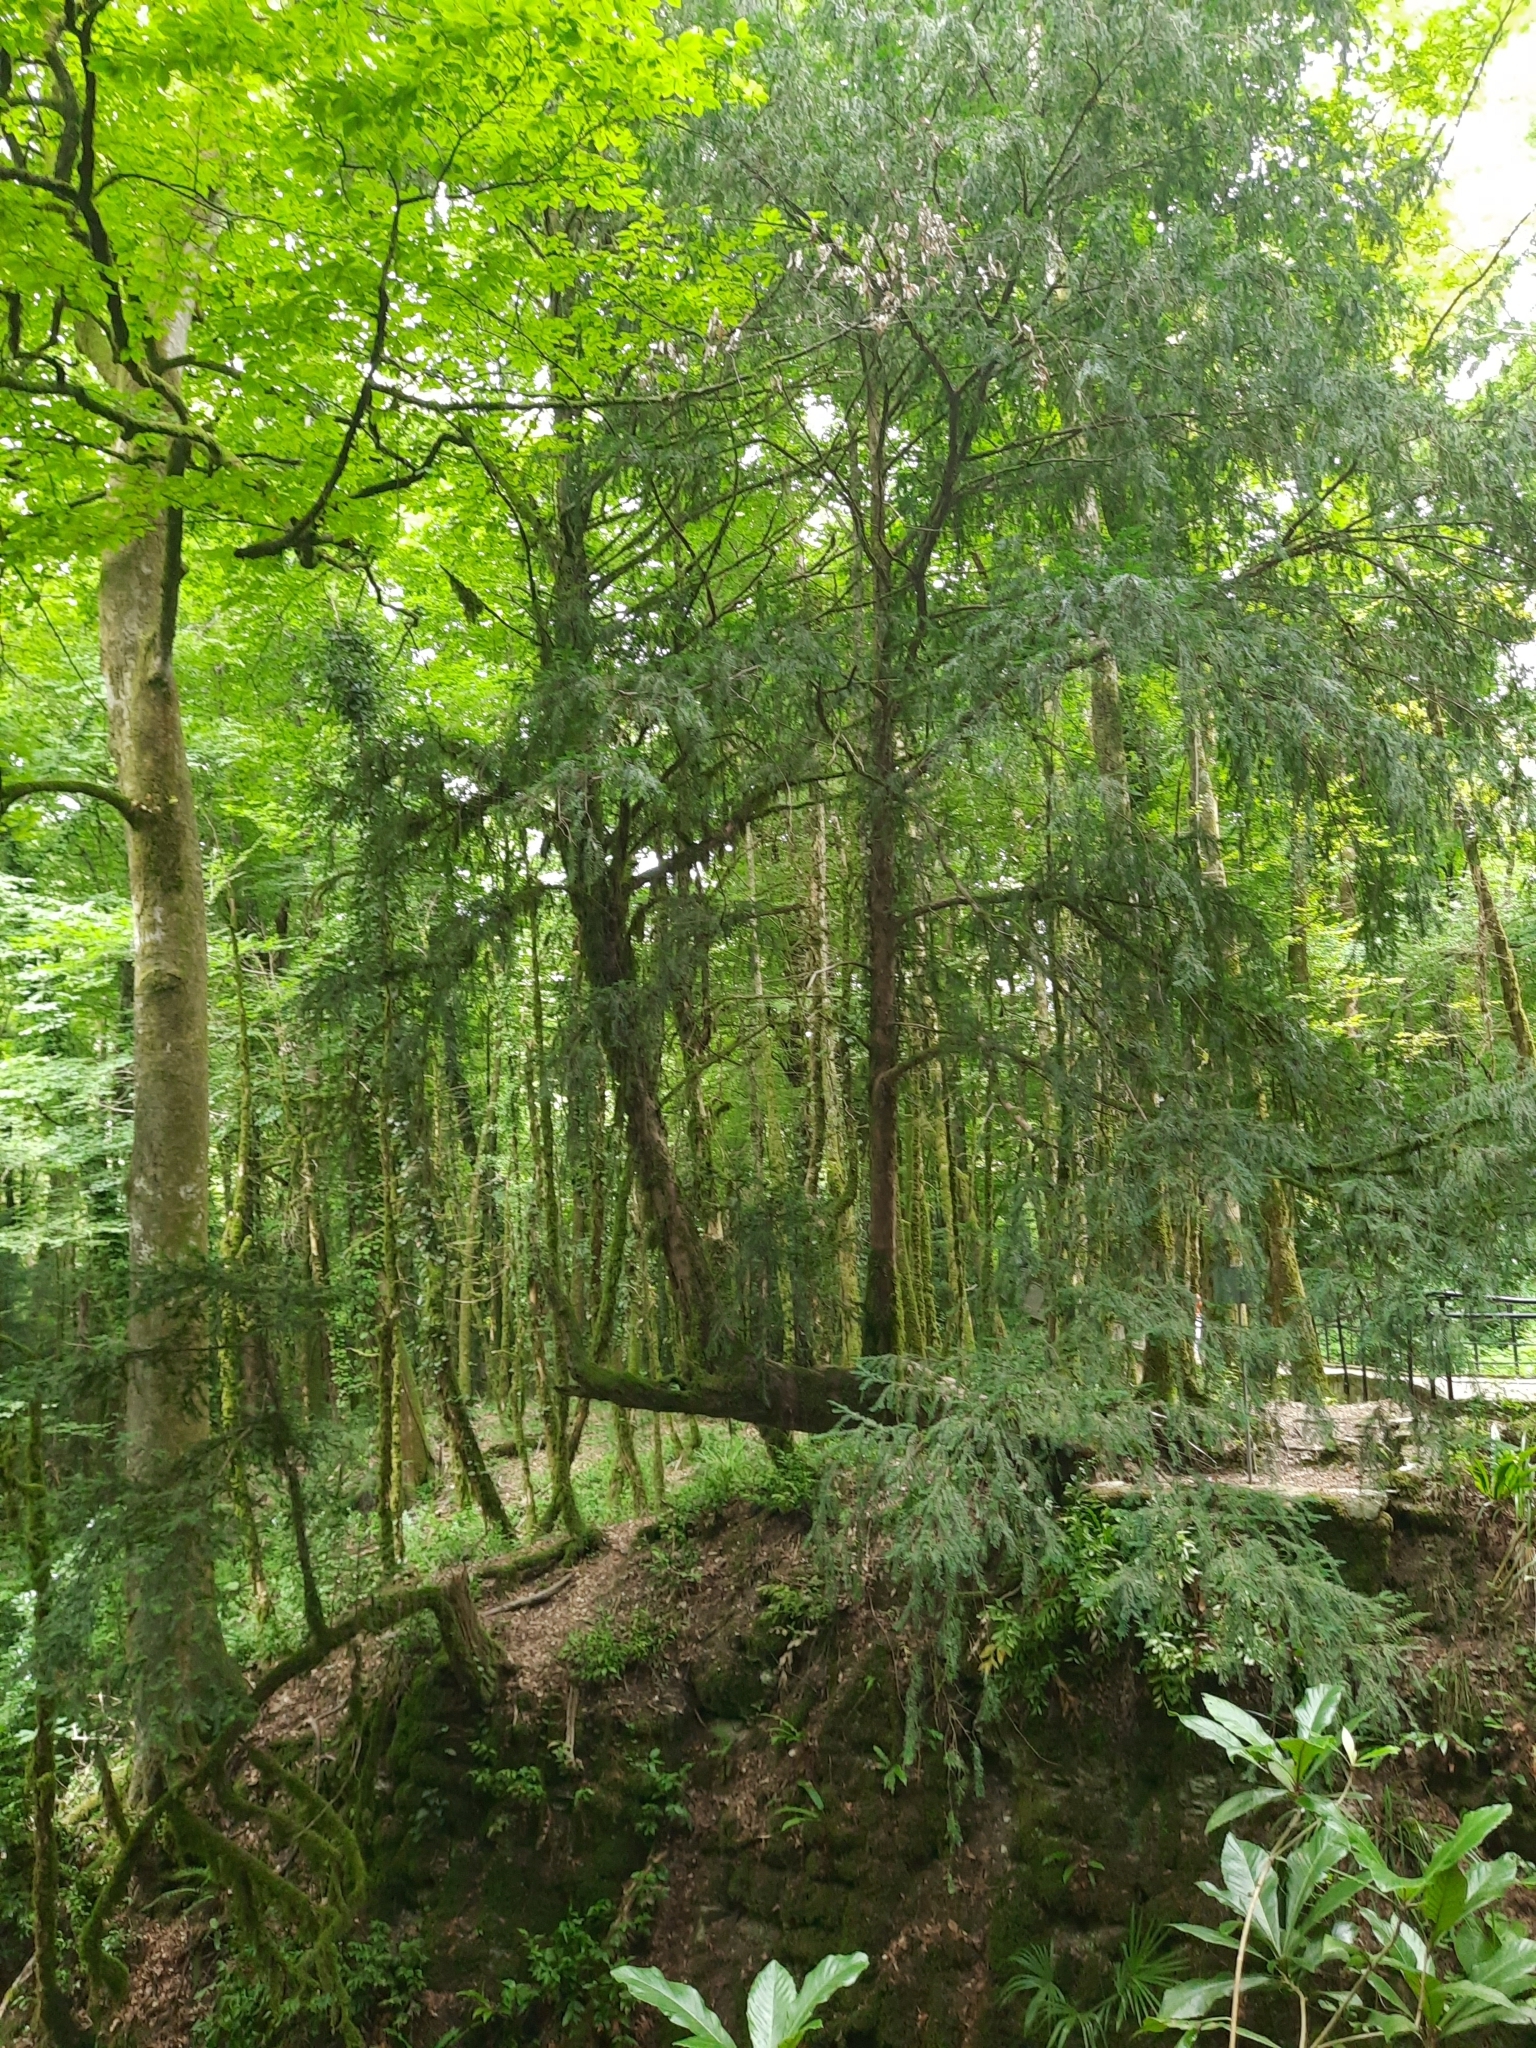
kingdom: Plantae
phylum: Tracheophyta
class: Pinopsida
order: Pinales
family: Taxaceae
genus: Taxus
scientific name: Taxus baccata
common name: Yew
